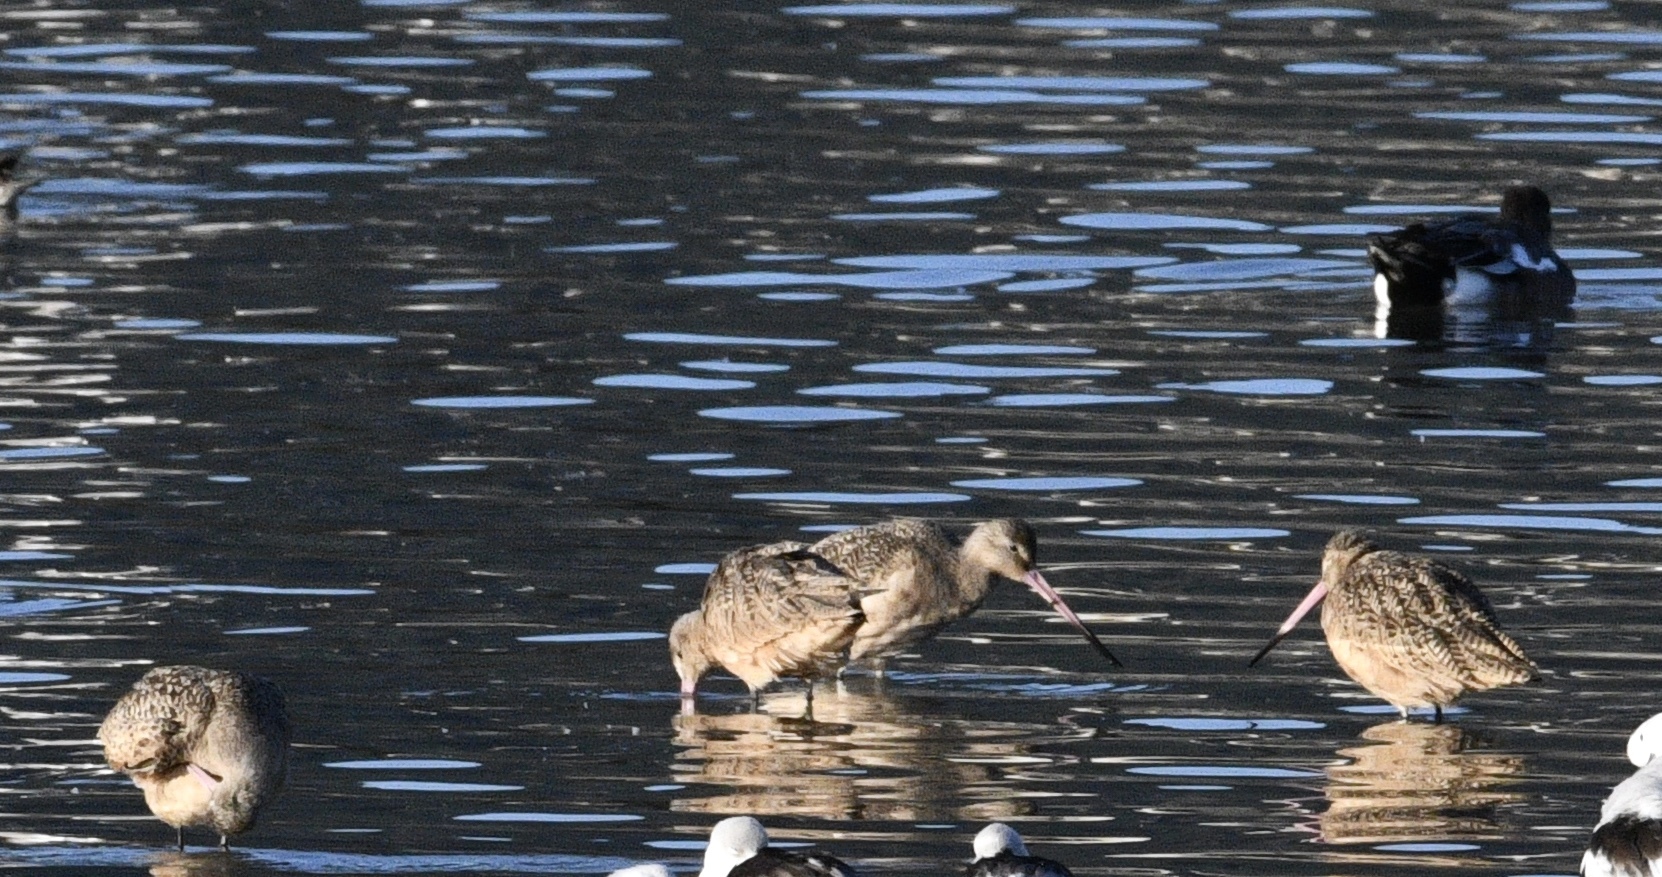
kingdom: Animalia
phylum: Chordata
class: Aves
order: Charadriiformes
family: Scolopacidae
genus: Limosa
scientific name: Limosa fedoa
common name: Marbled godwit
